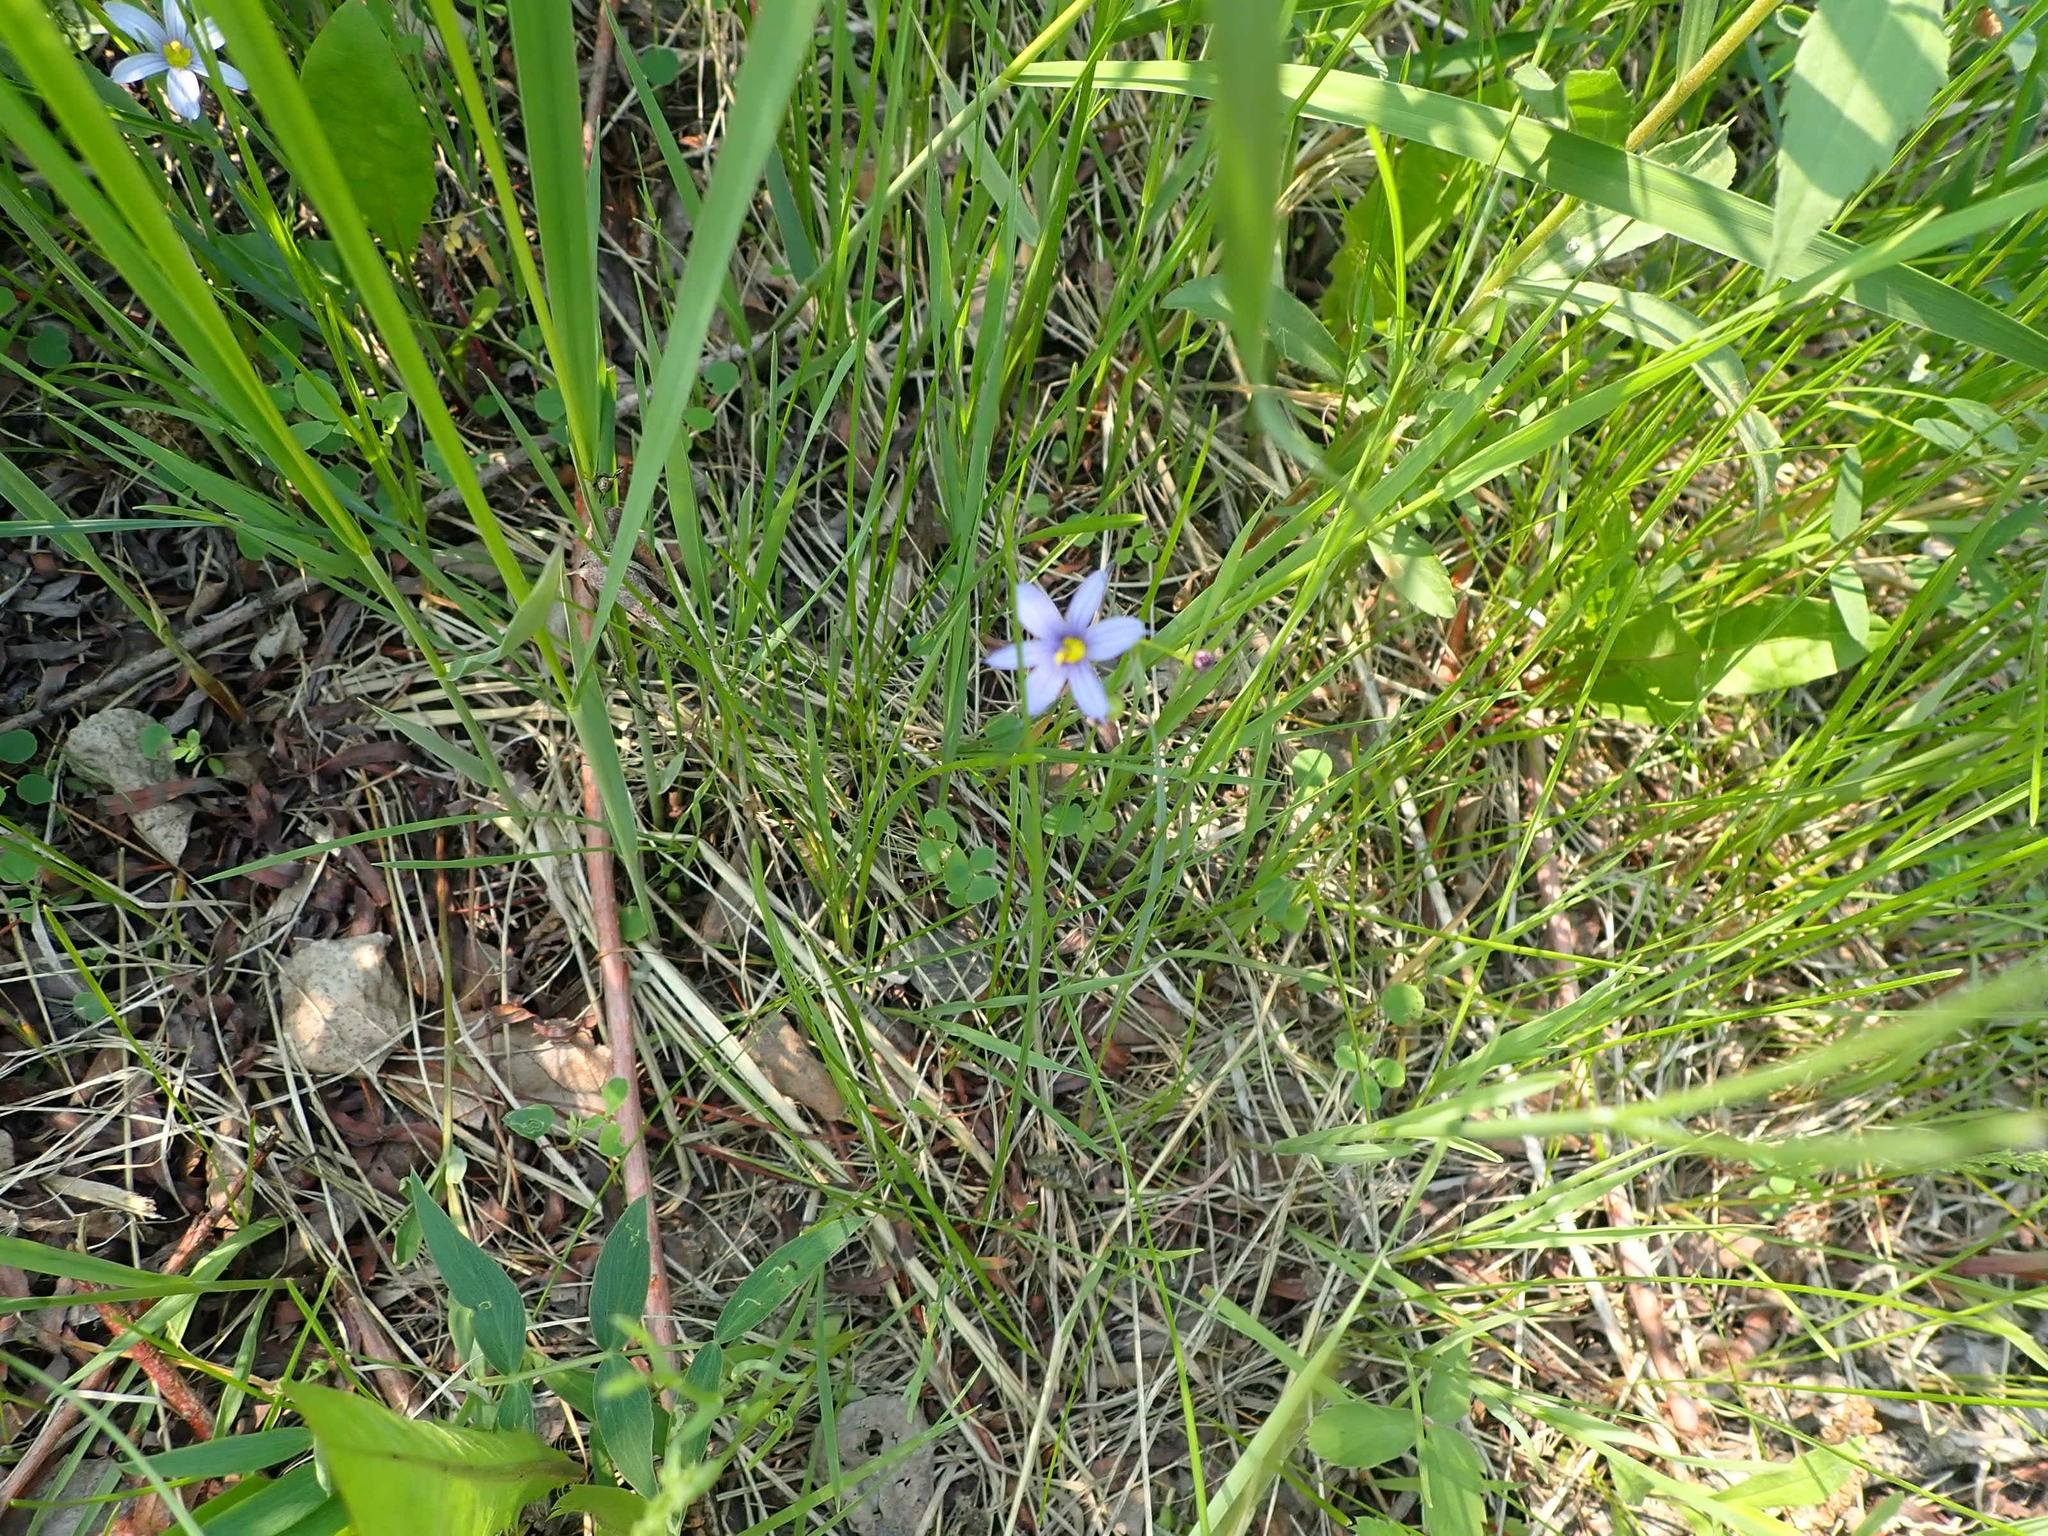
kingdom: Plantae
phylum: Tracheophyta
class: Liliopsida
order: Asparagales
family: Iridaceae
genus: Sisyrinchium
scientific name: Sisyrinchium montanum
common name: American blue-eyed-grass
